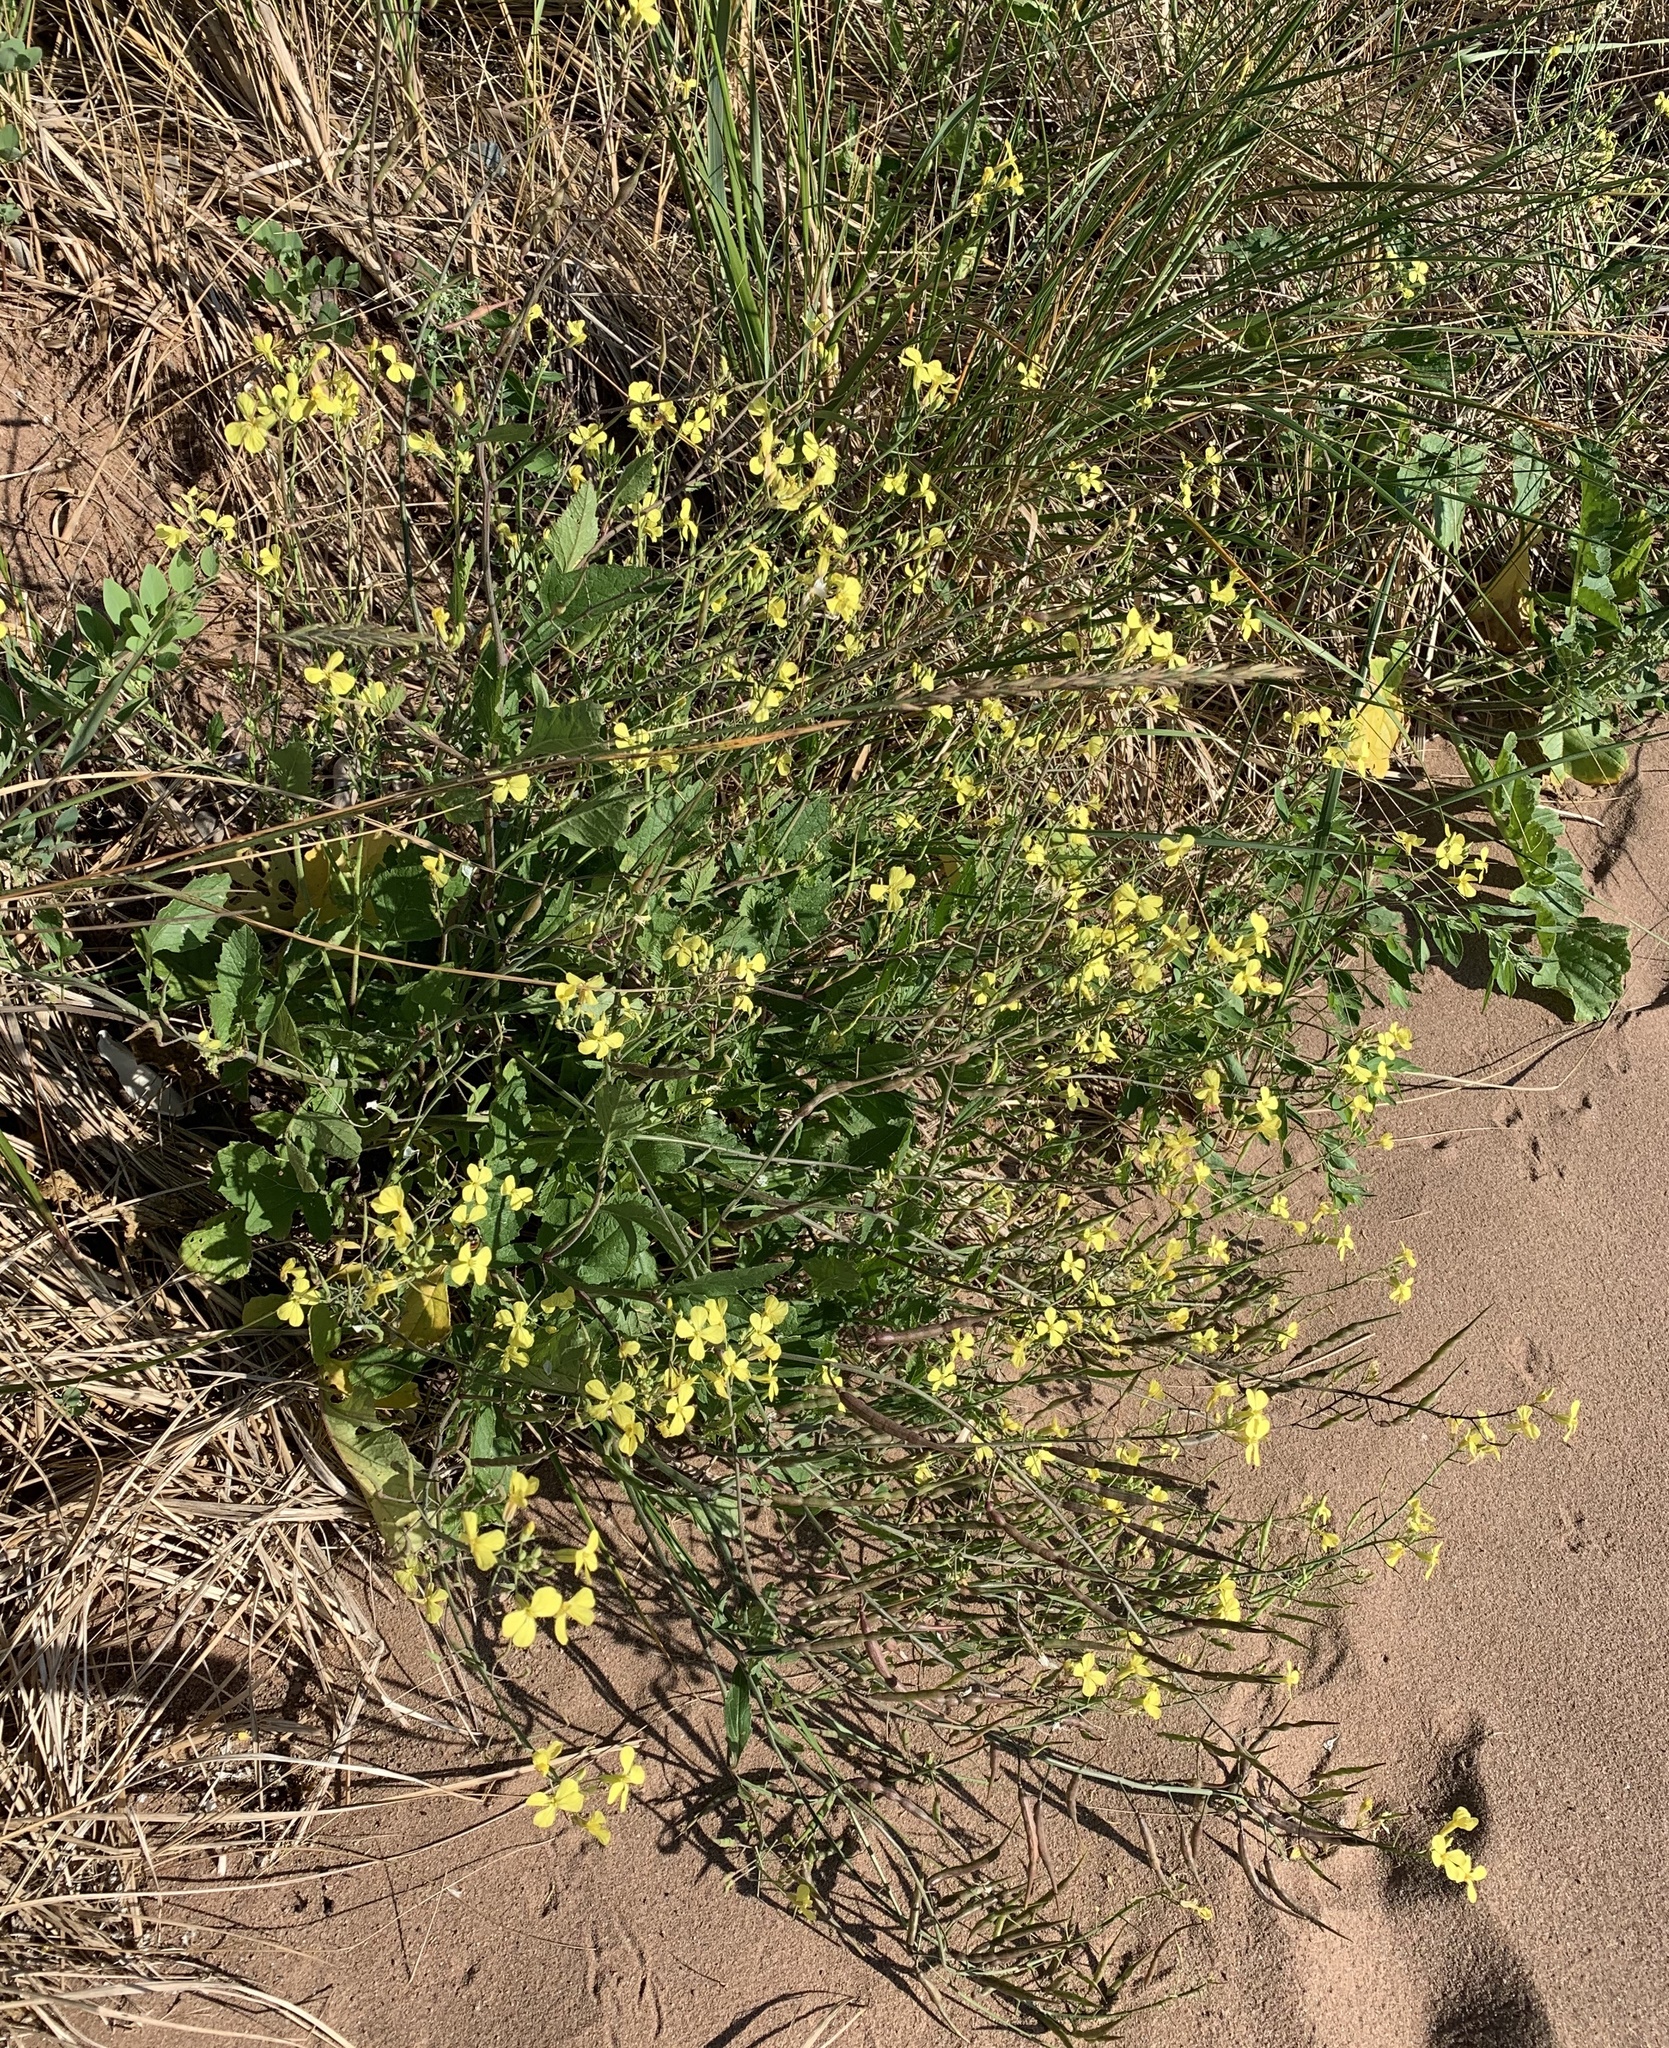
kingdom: Plantae
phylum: Tracheophyta
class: Magnoliopsida
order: Brassicales
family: Brassicaceae
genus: Raphanus
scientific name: Raphanus raphanistrum
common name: Wild radish
